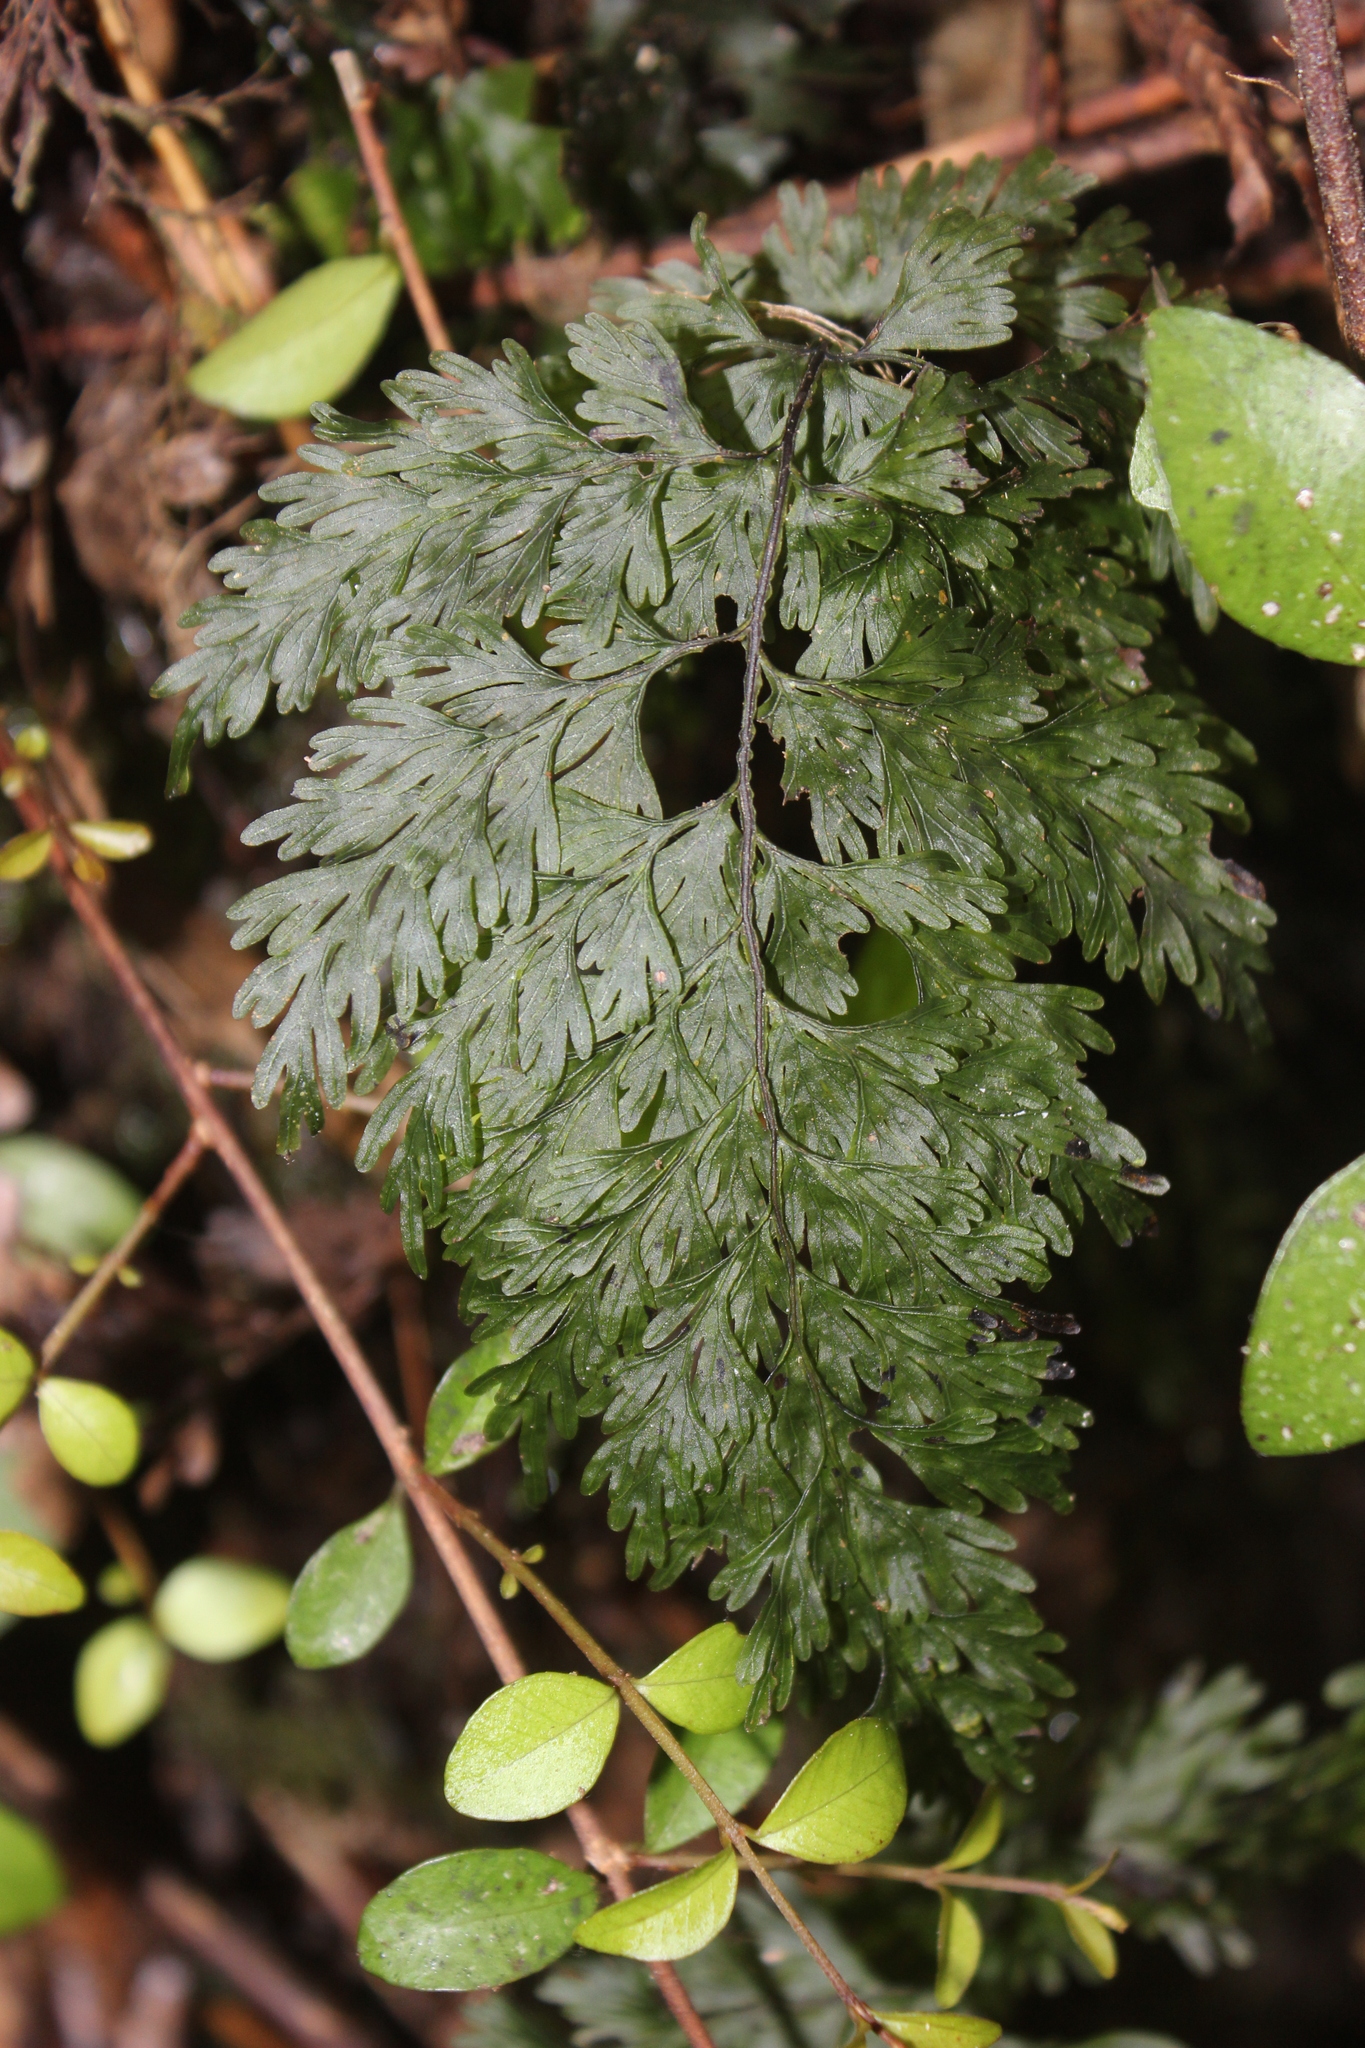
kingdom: Plantae
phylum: Tracheophyta
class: Polypodiopsida
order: Hymenophyllales
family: Hymenophyllaceae
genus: Hymenophyllum
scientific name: Hymenophyllum dilatatum
